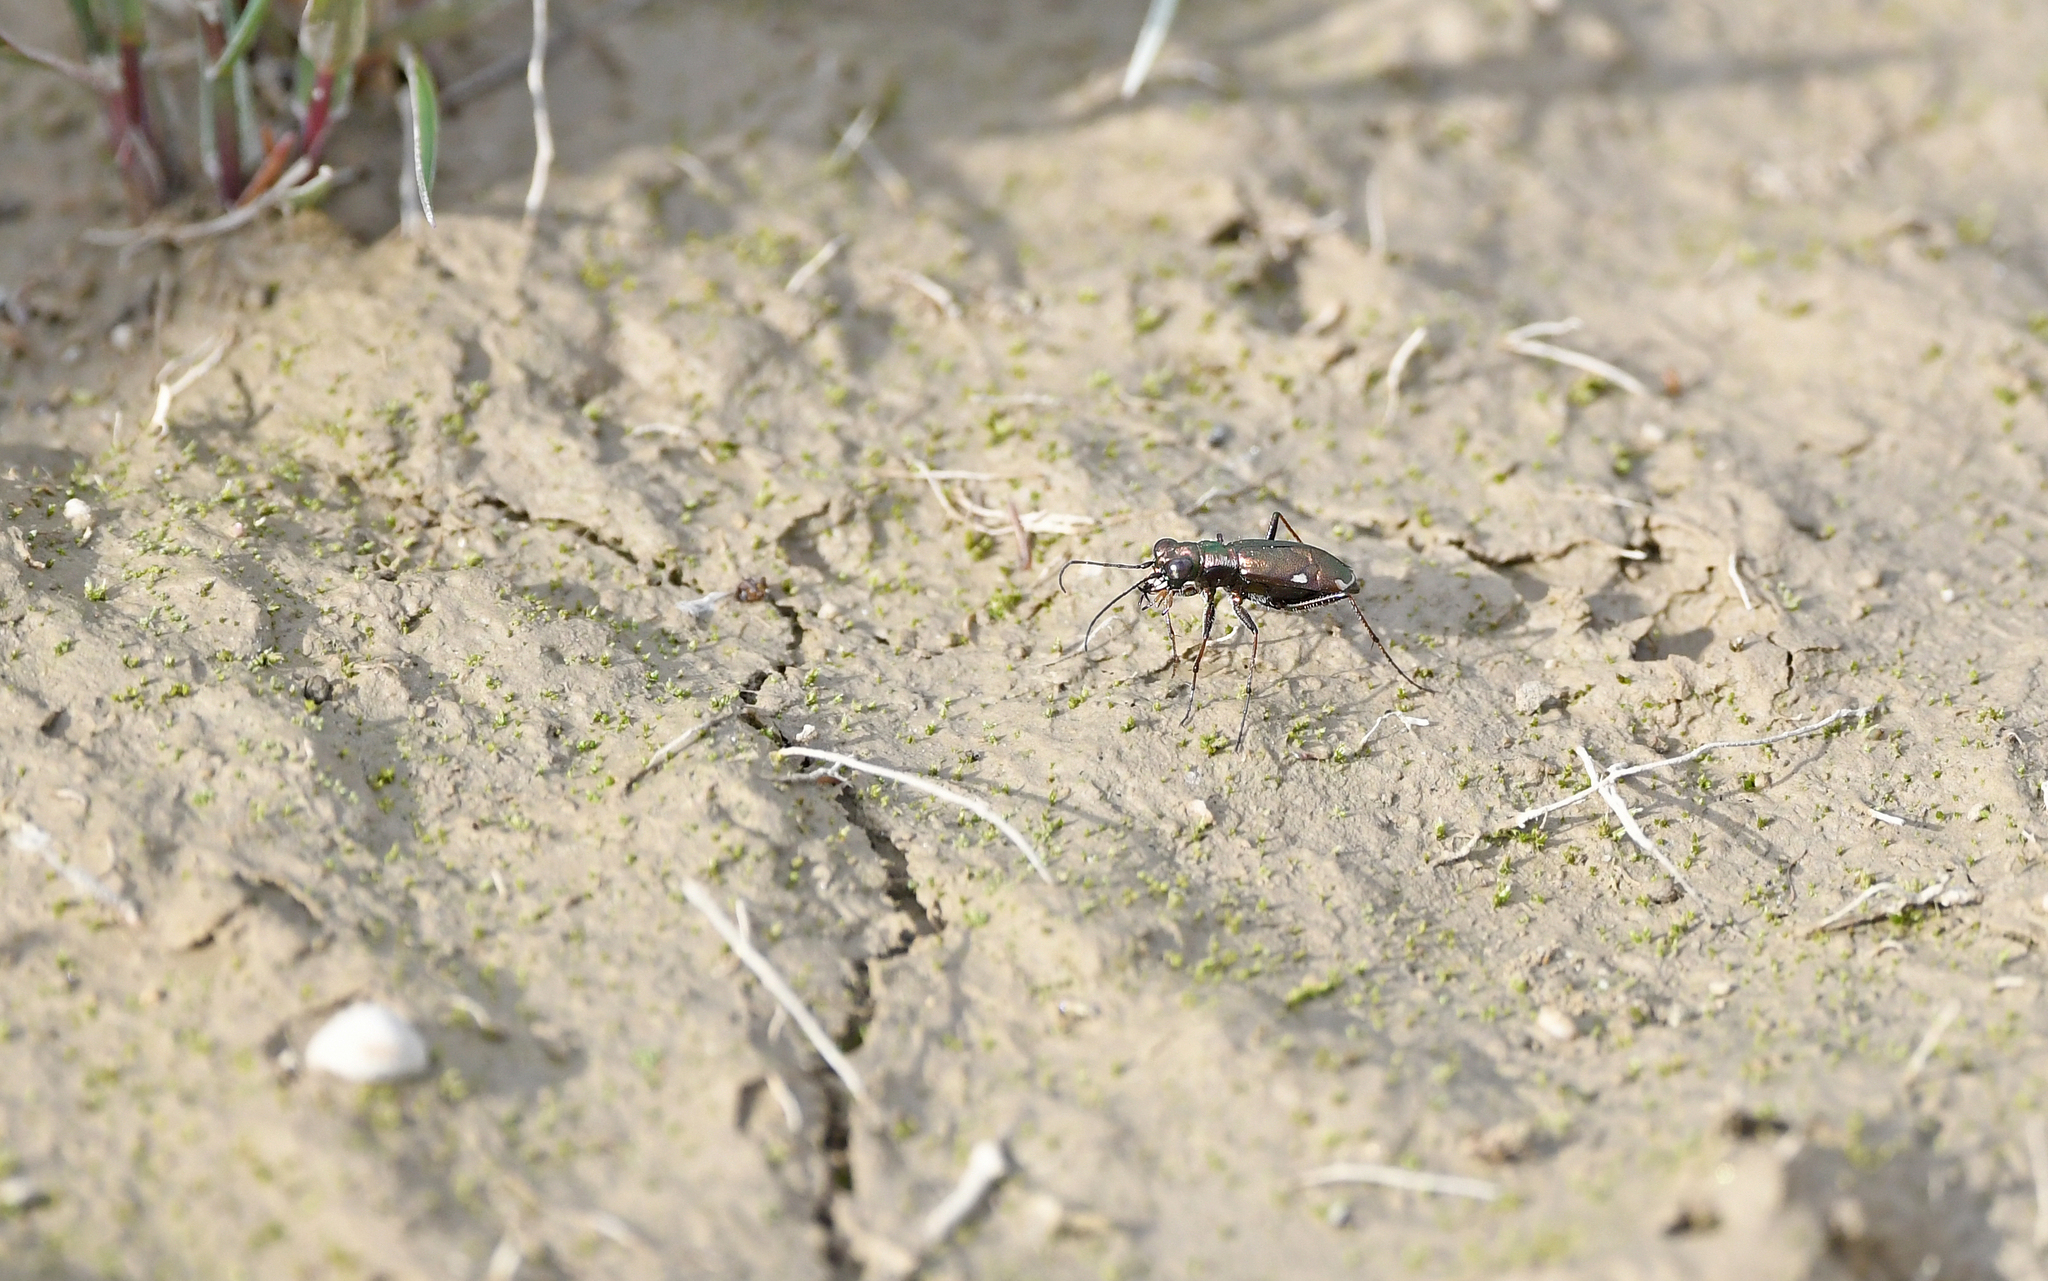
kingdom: Animalia
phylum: Arthropoda
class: Insecta
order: Coleoptera
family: Carabidae
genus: Cylindera
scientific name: Cylindera germanica
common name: Cliff tiger beetle
